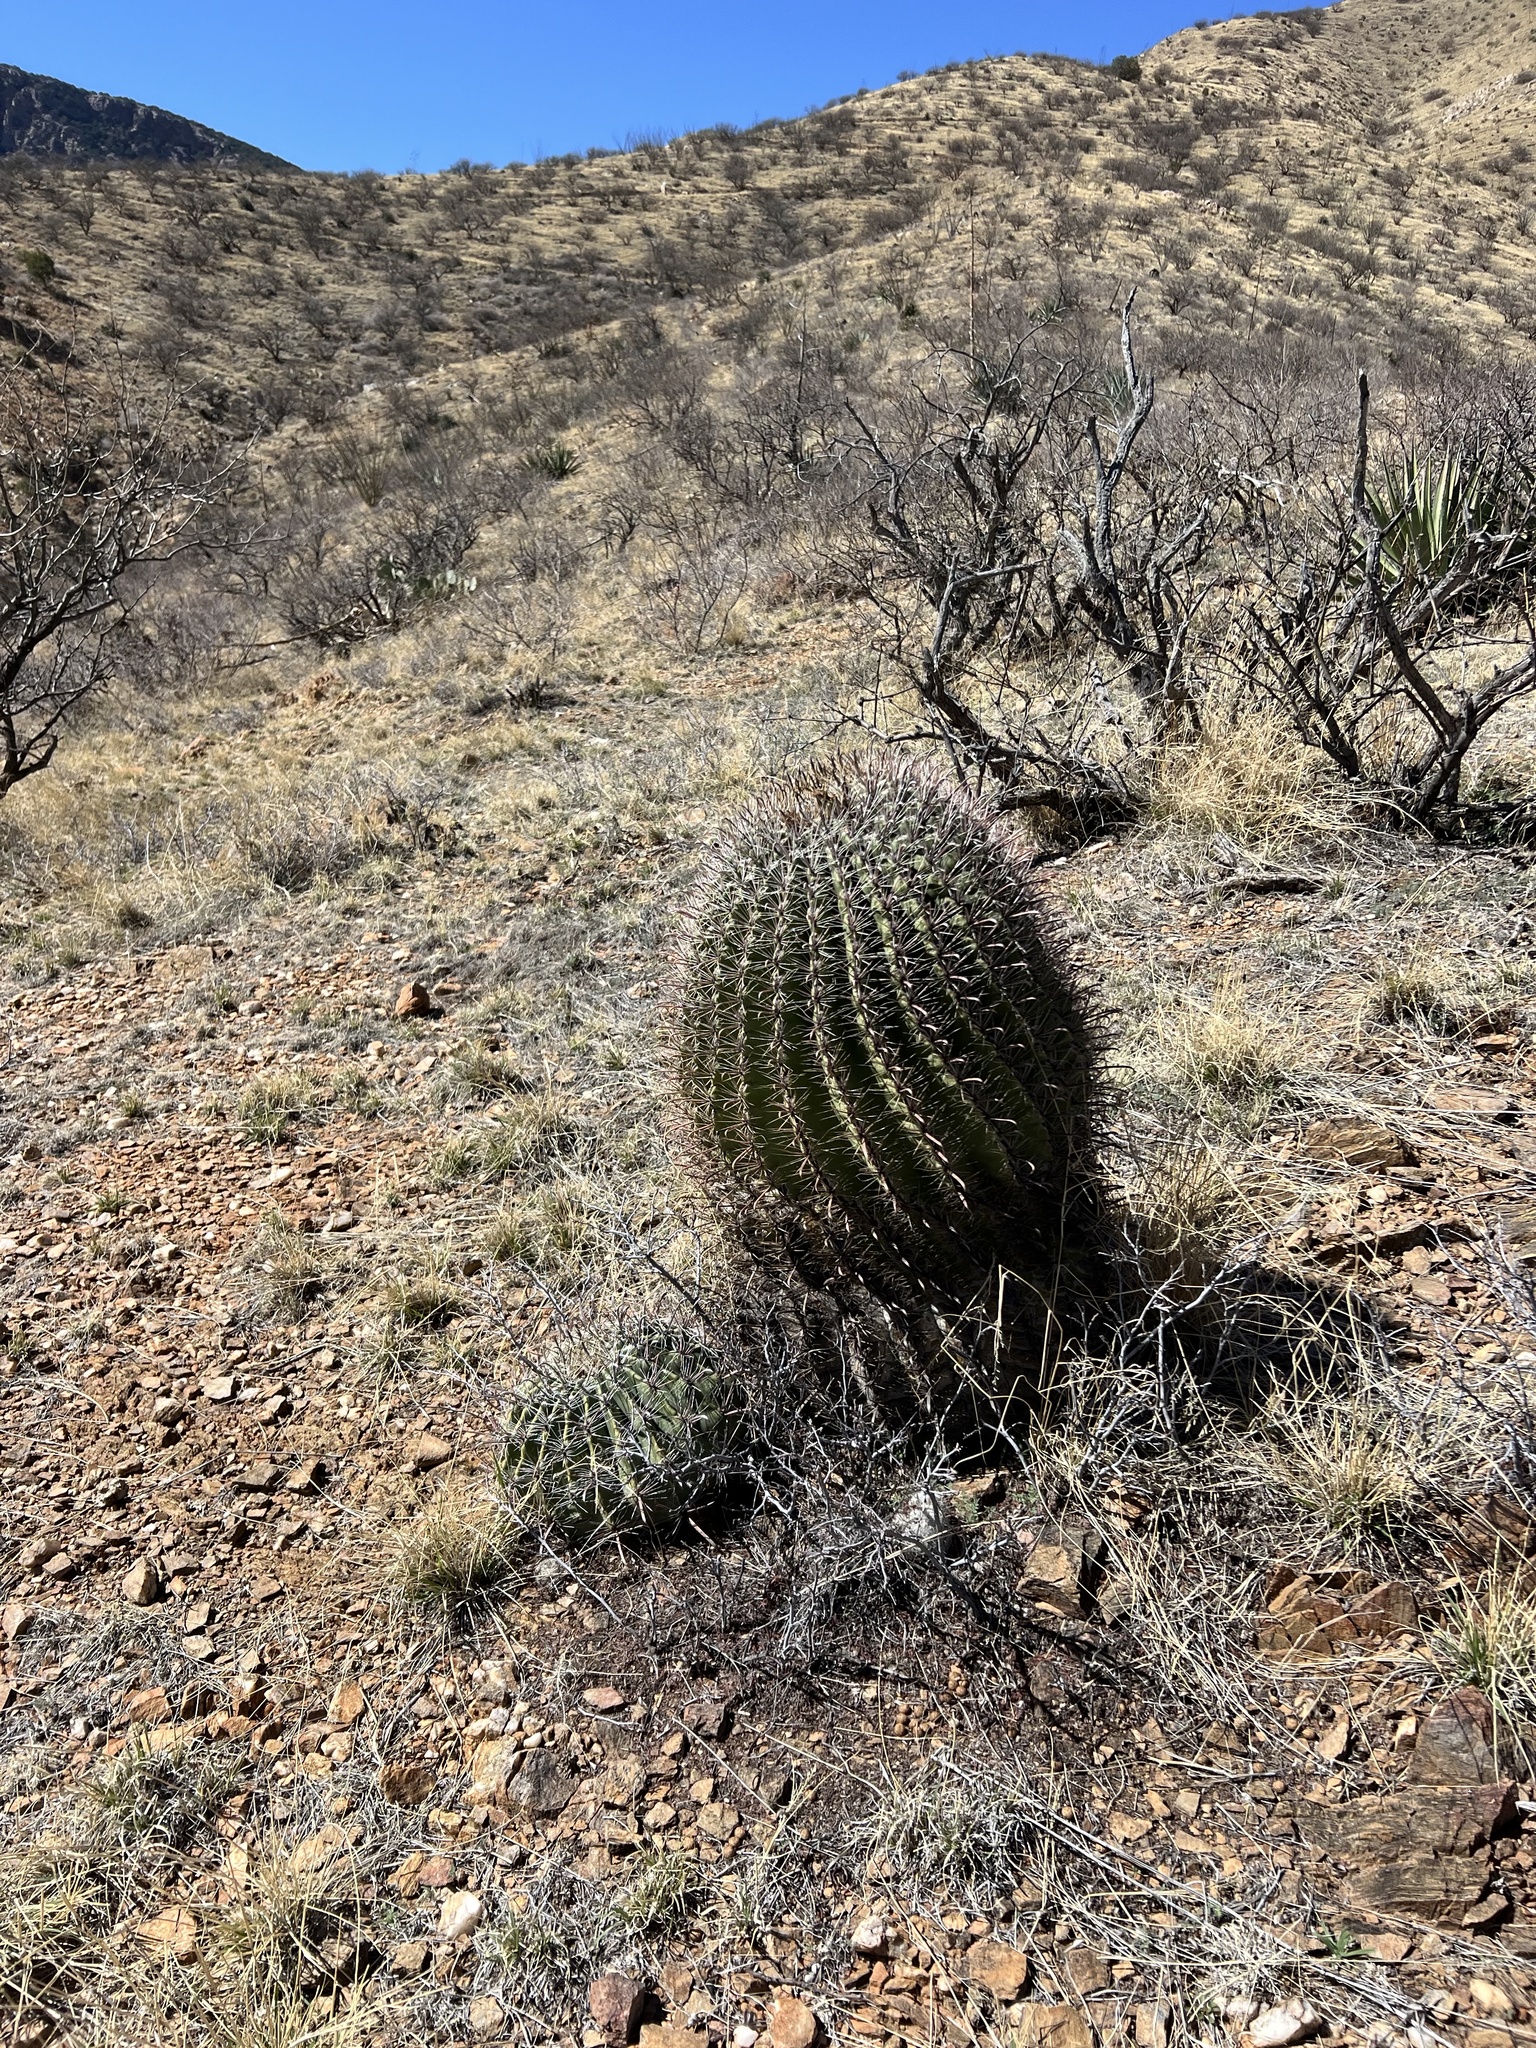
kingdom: Plantae
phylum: Tracheophyta
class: Magnoliopsida
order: Caryophyllales
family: Cactaceae
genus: Ferocactus
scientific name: Ferocactus wislizeni
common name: Candy barrel cactus
